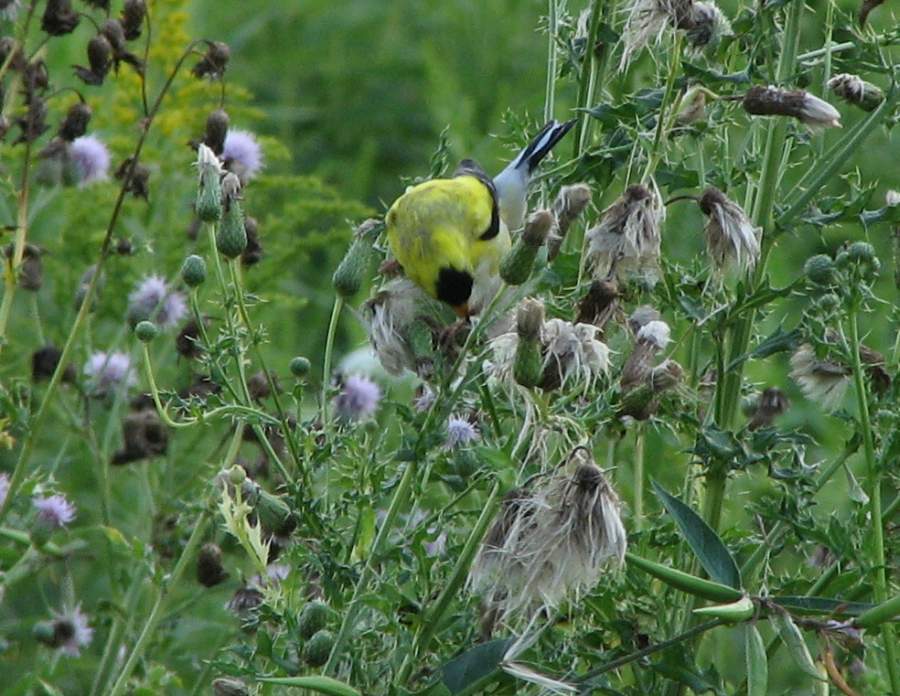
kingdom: Animalia
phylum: Chordata
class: Aves
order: Passeriformes
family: Fringillidae
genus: Spinus
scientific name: Spinus tristis
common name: American goldfinch
